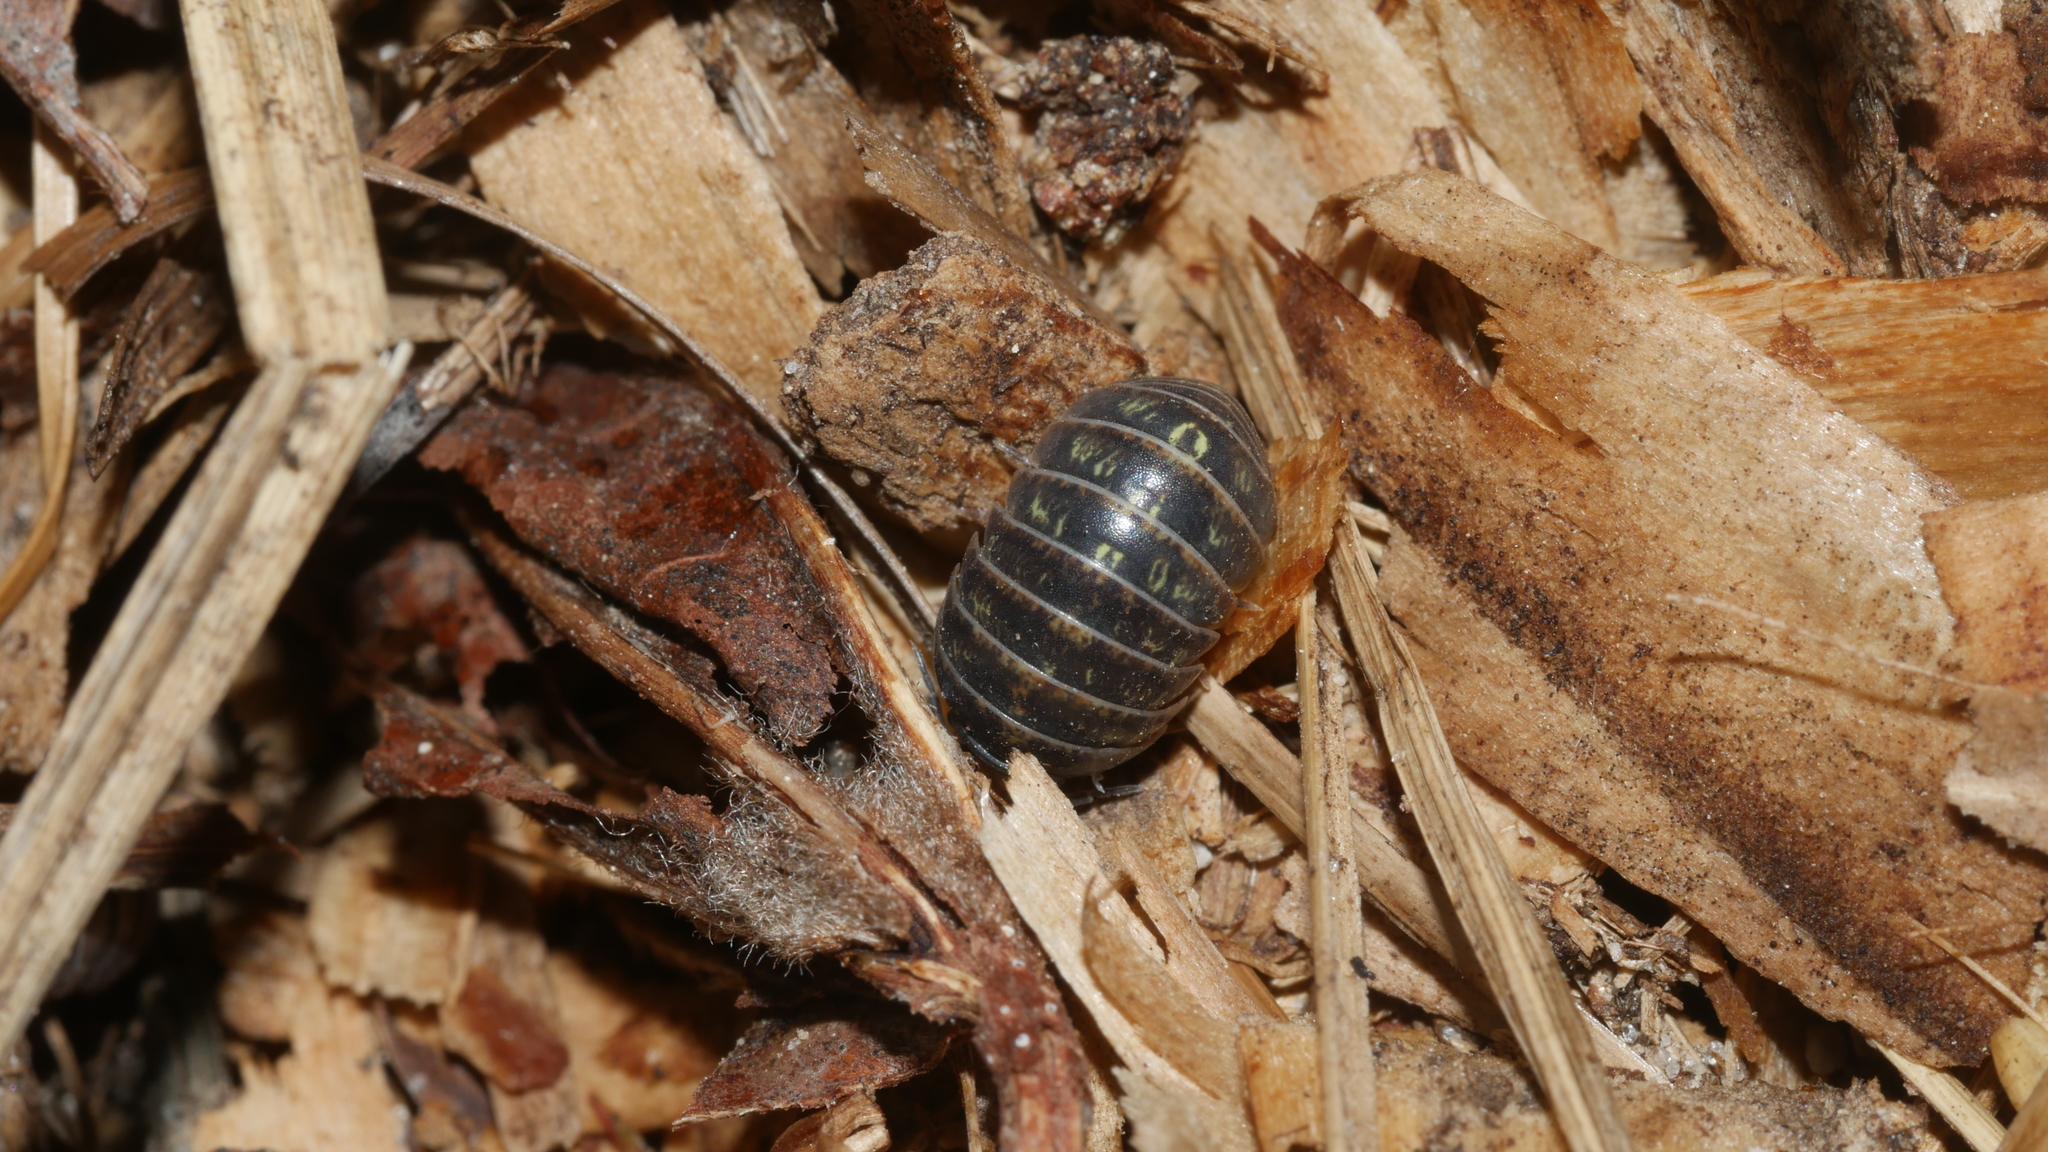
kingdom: Animalia
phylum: Arthropoda
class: Malacostraca
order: Isopoda
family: Armadillidiidae
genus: Armadillidium
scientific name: Armadillidium vulgare
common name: Common pill woodlouse
